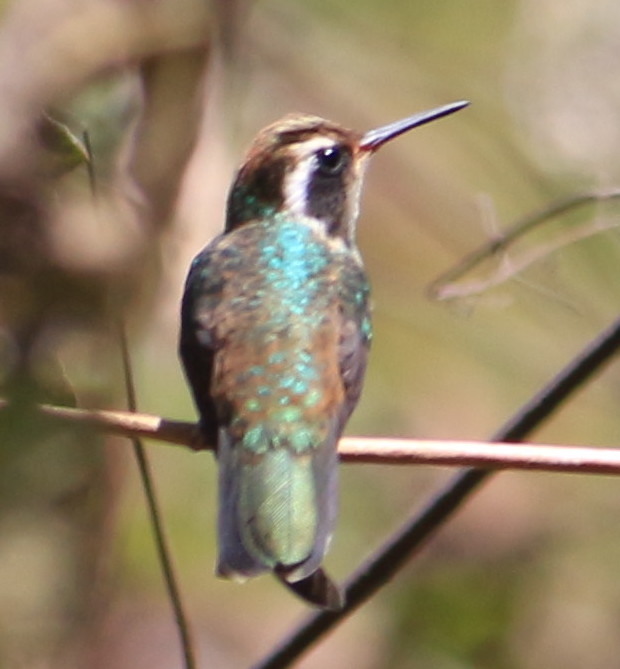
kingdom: Animalia
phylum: Chordata
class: Aves
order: Apodiformes
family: Trochilidae
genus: Basilinna
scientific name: Basilinna leucotis
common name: White-eared hummingbird
